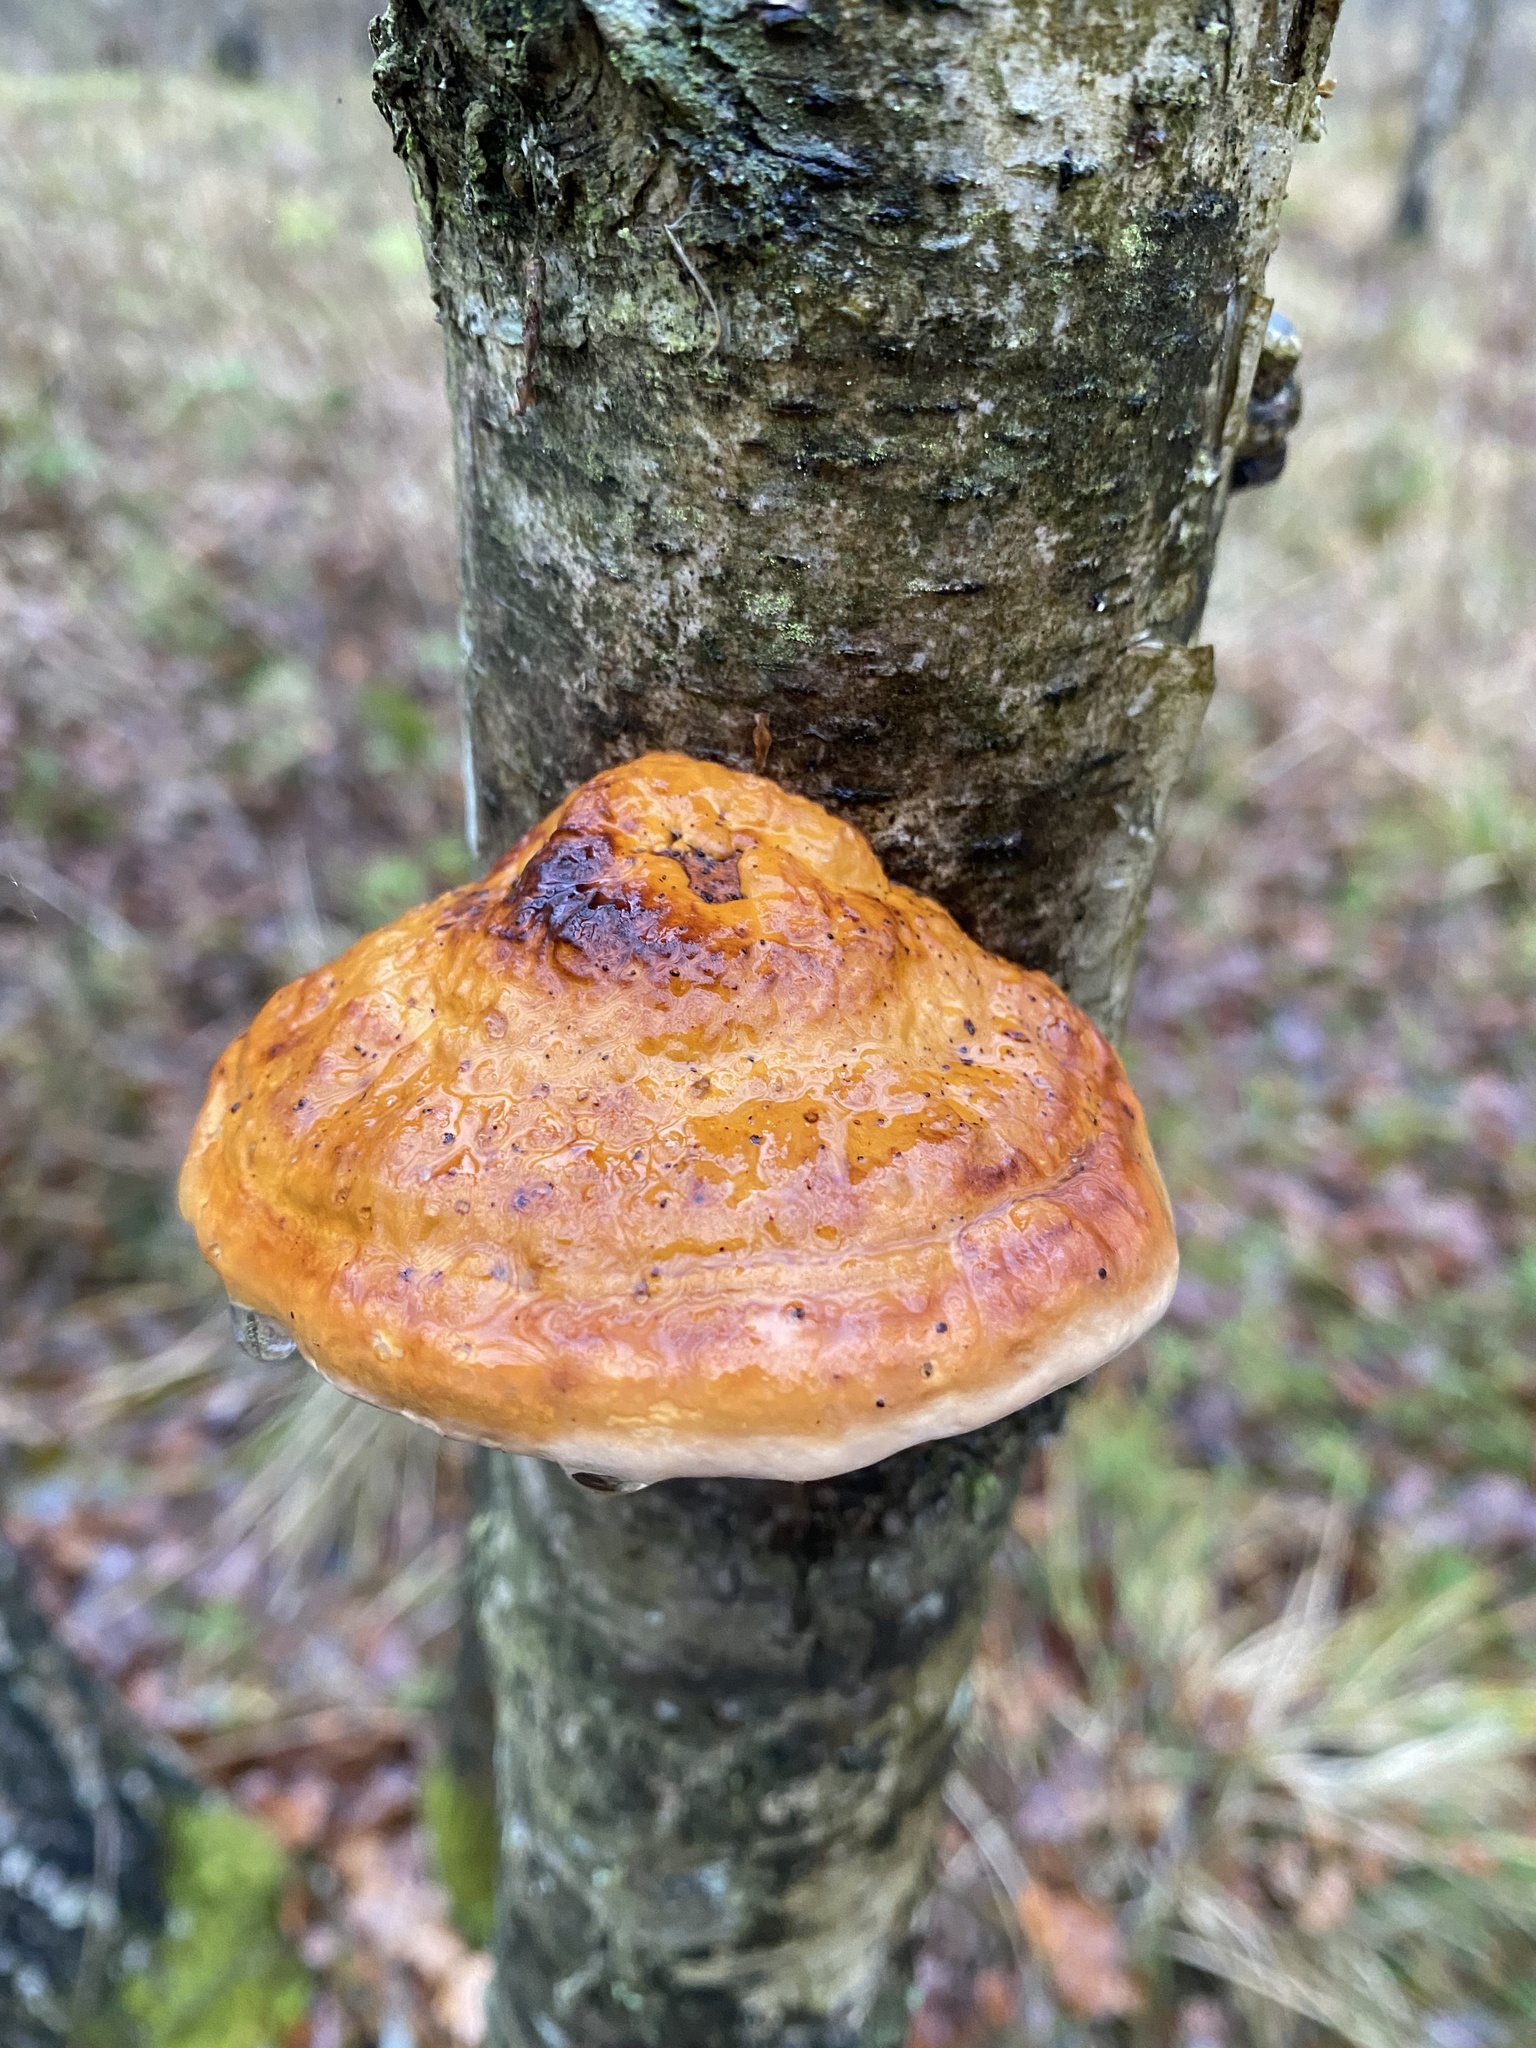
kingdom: Fungi
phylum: Basidiomycota
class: Agaricomycetes
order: Polyporales
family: Fomitopsidaceae
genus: Fomitopsis
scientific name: Fomitopsis pinicola
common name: Red-belted bracket
